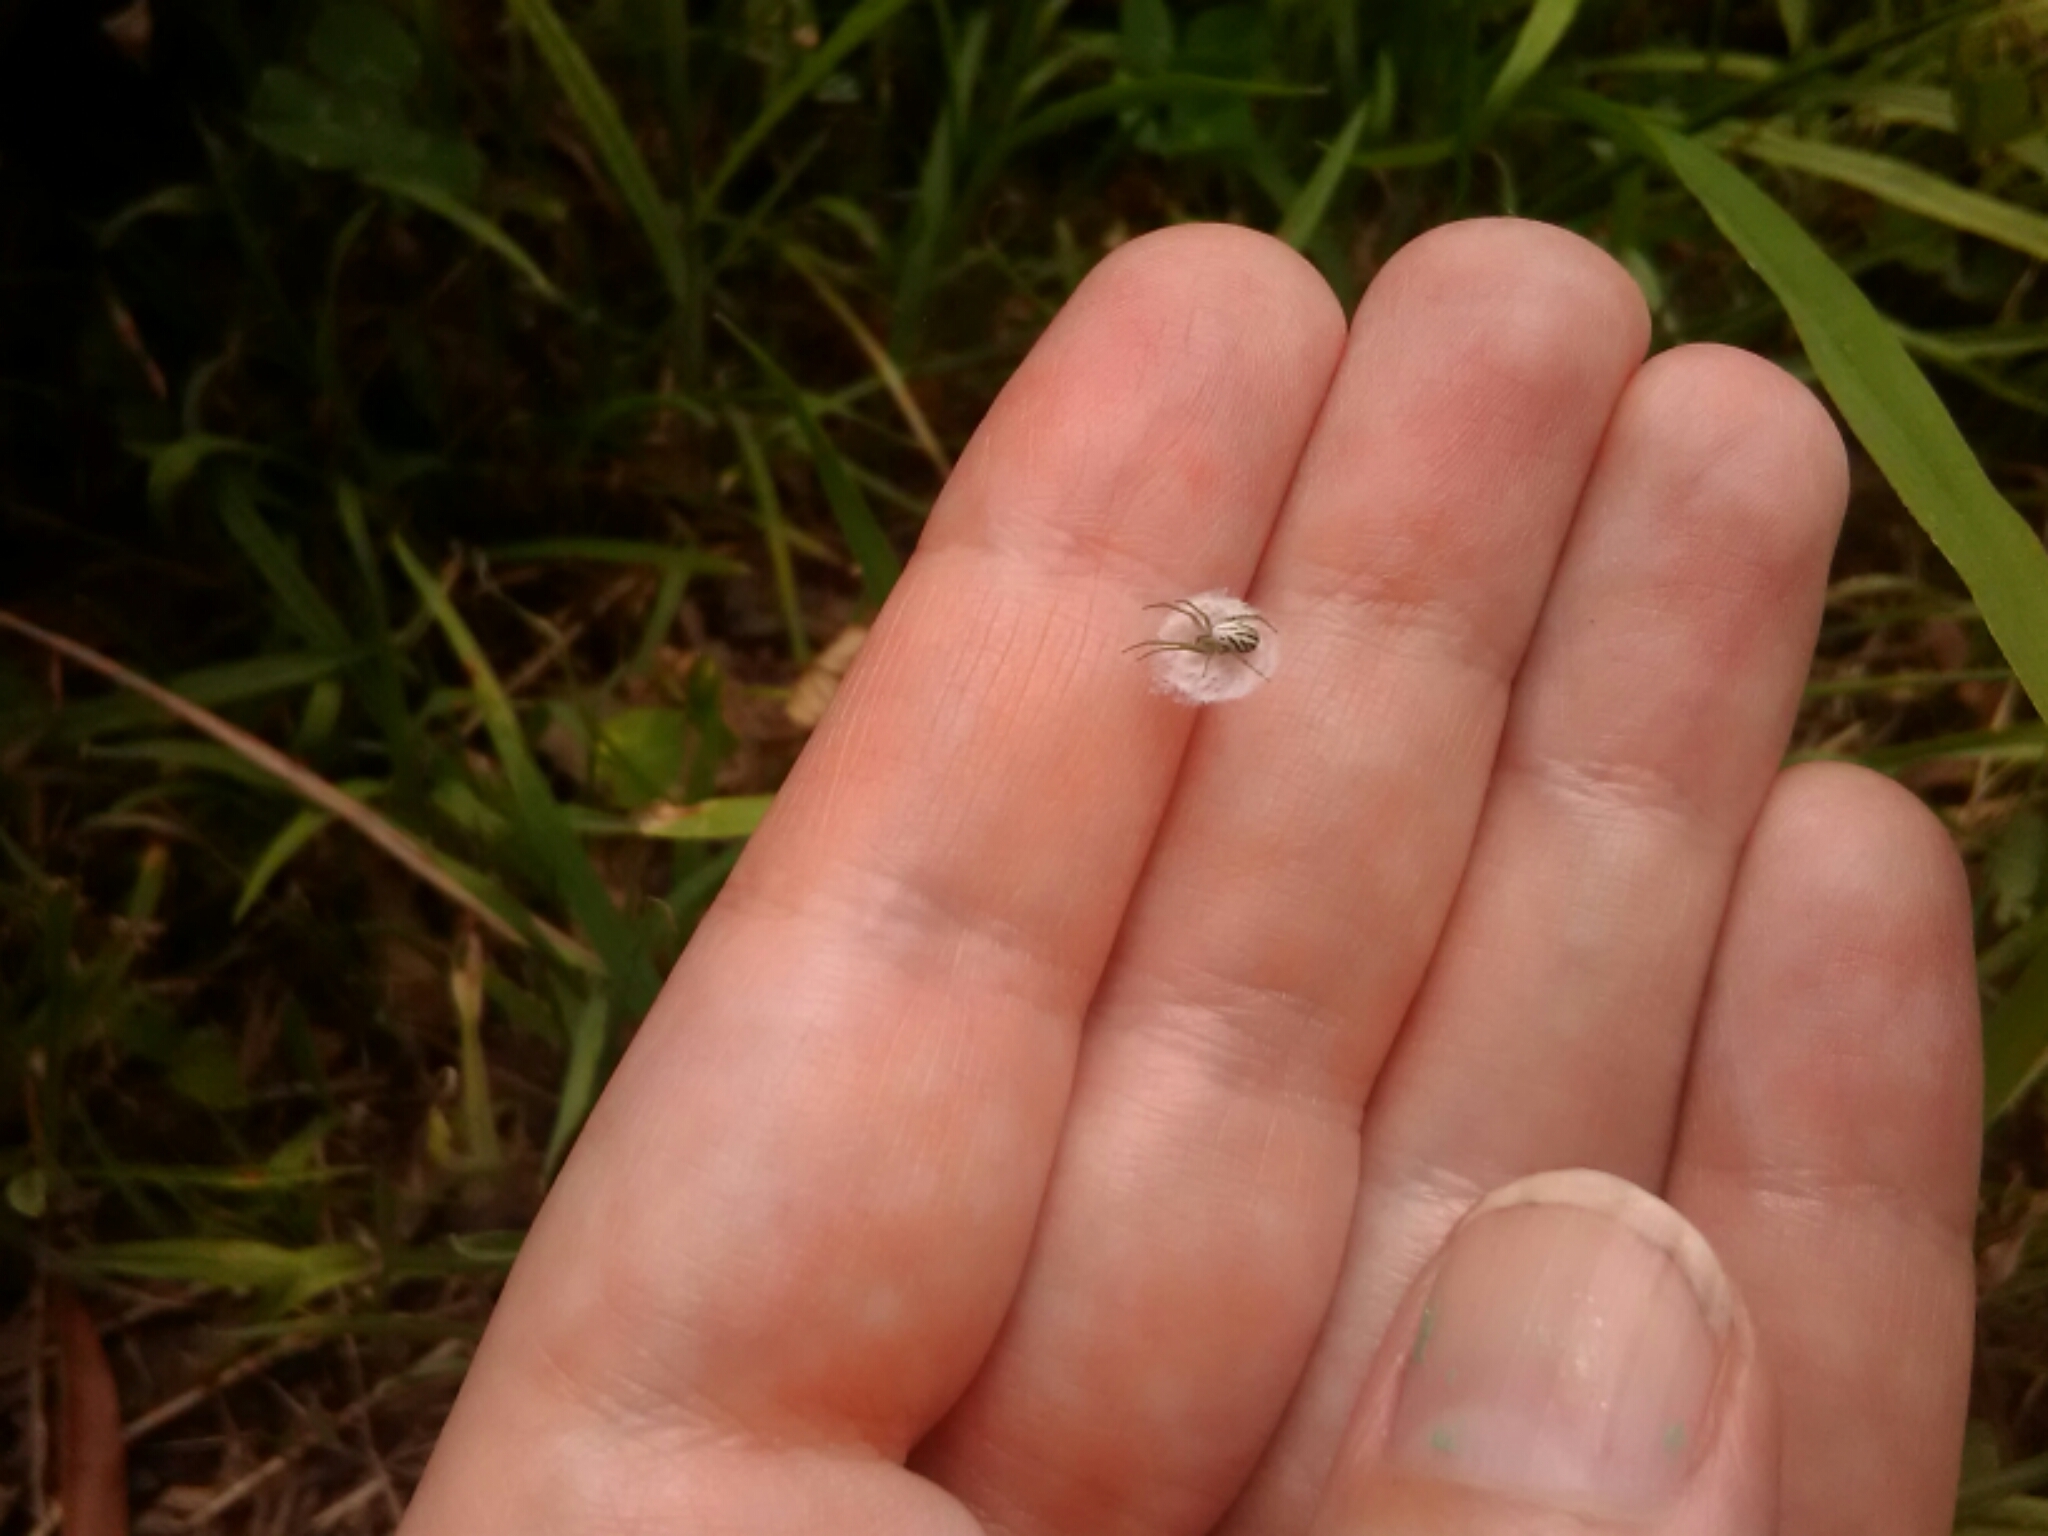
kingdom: Animalia
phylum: Arthropoda
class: Arachnida
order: Araneae
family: Araneidae
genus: Mangora
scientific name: Mangora gibberosa
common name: Lined orbweaver
